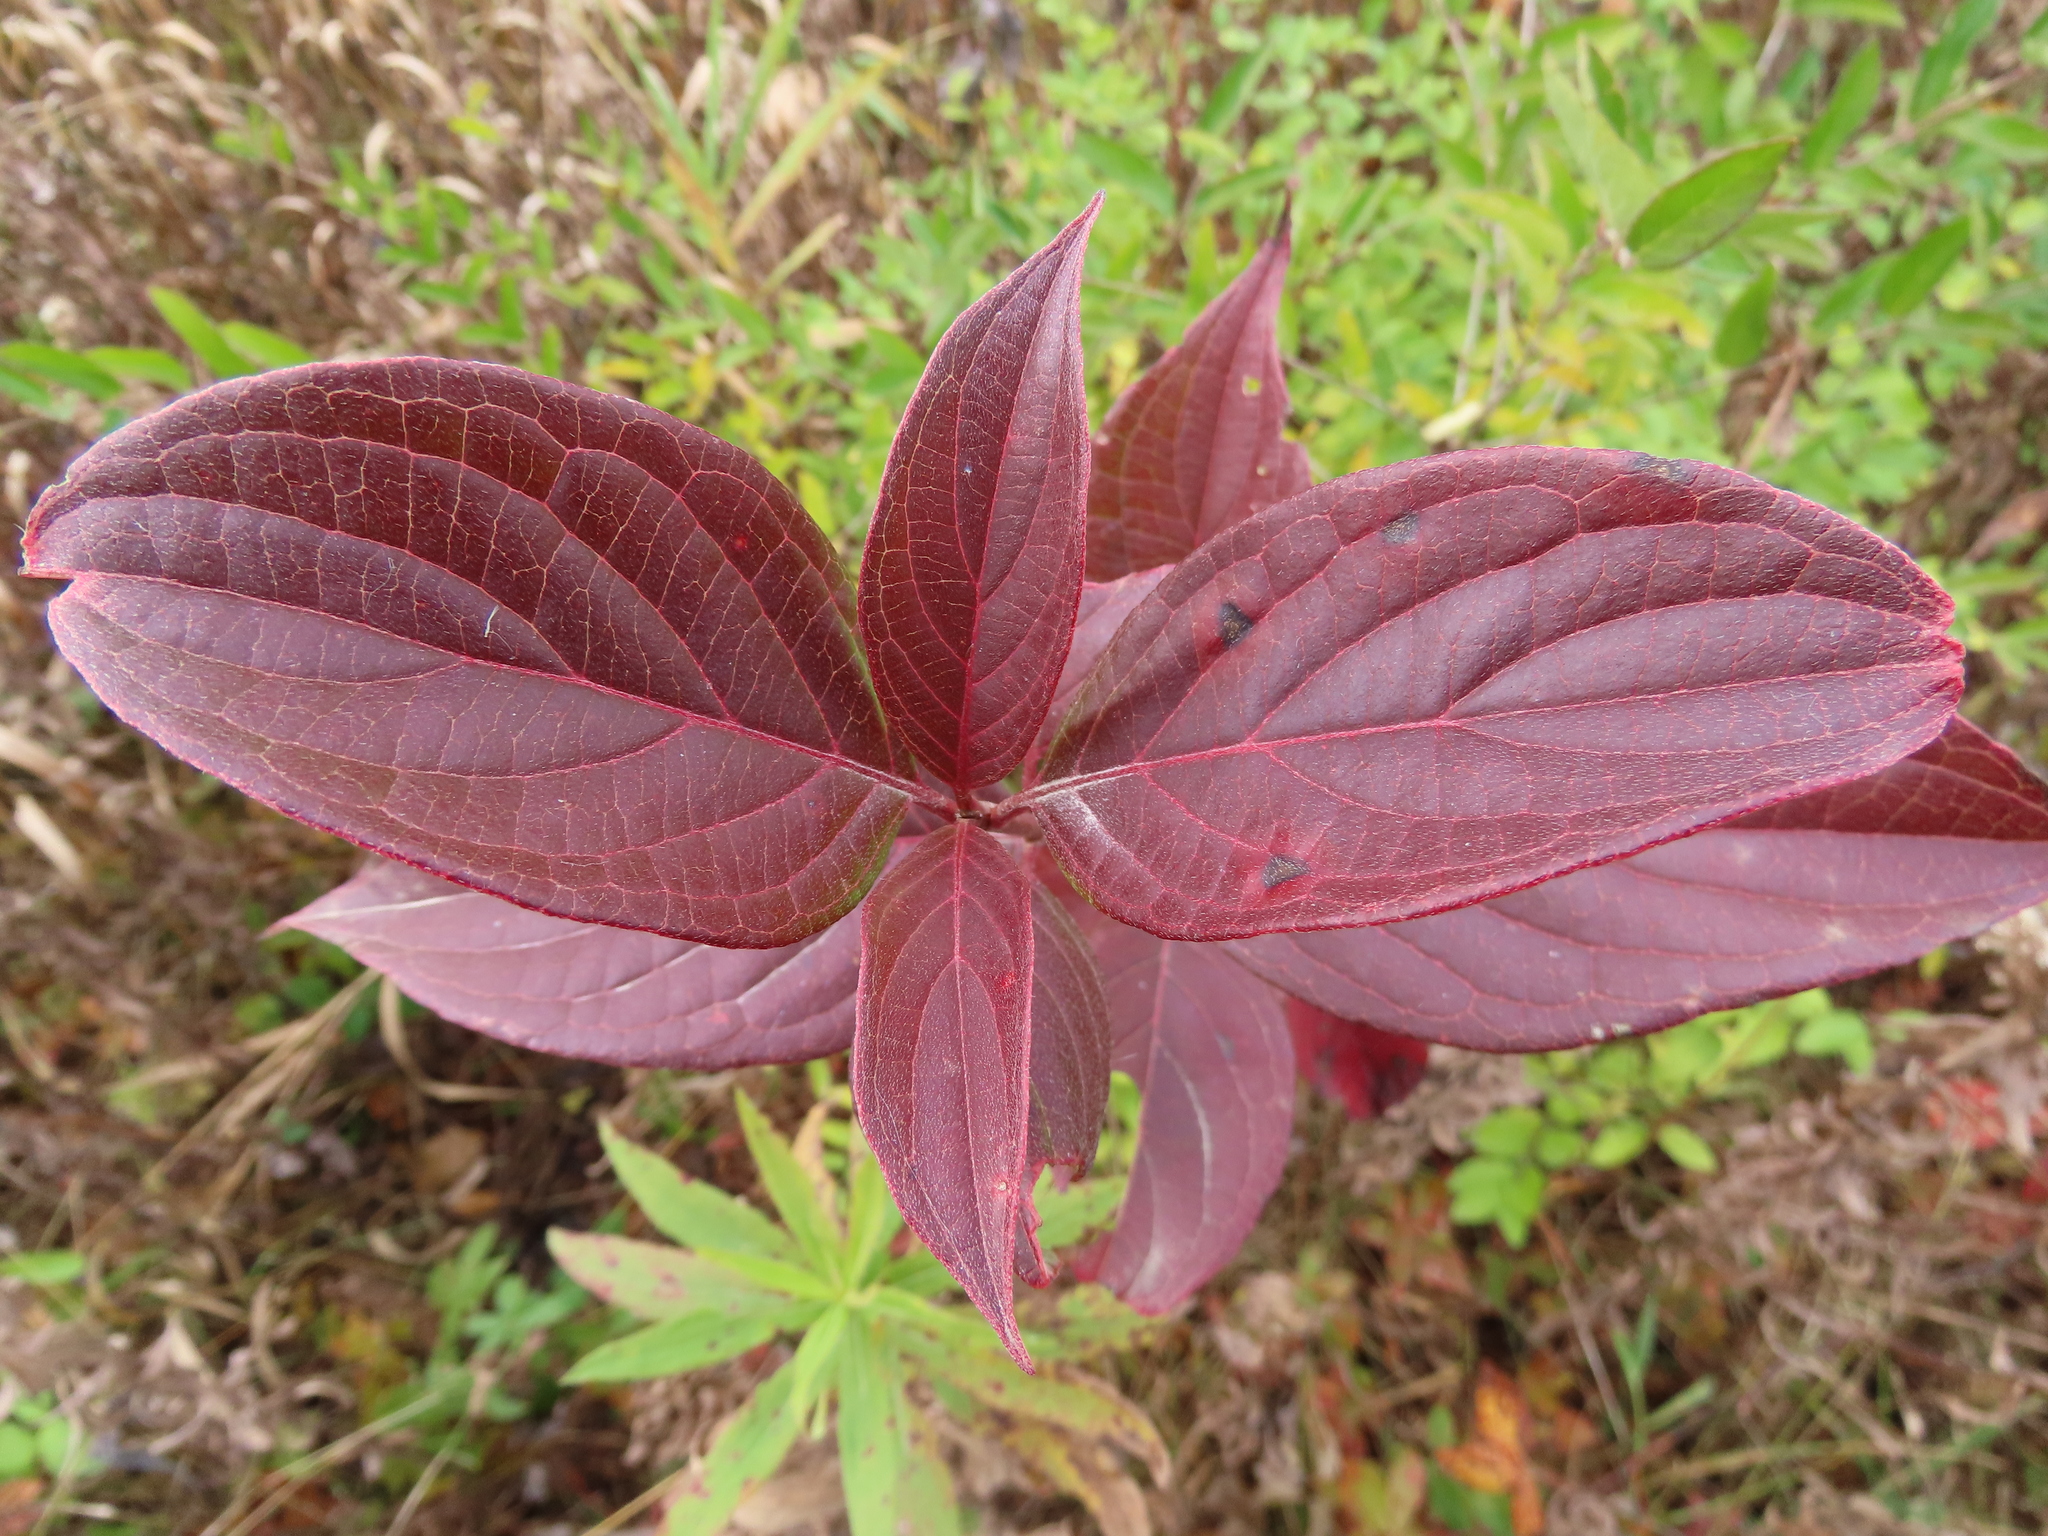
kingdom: Plantae
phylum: Tracheophyta
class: Magnoliopsida
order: Cornales
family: Cornaceae
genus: Cornus
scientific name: Cornus sericea
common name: Red-osier dogwood
